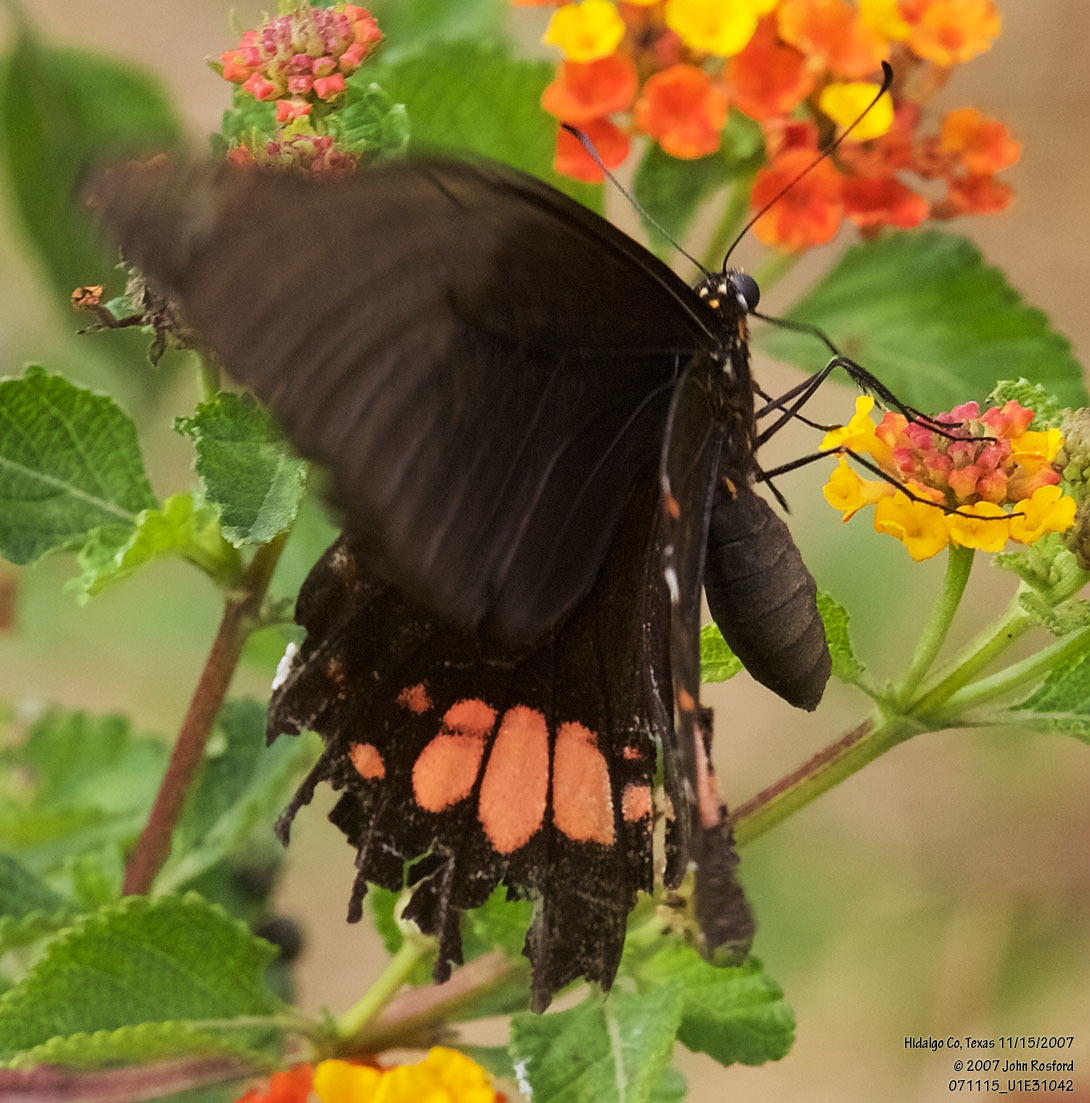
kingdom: Animalia
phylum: Arthropoda
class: Insecta
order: Lepidoptera
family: Papilionidae
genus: Papilio
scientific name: Papilio anchisiades
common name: Idaes swallowtail
